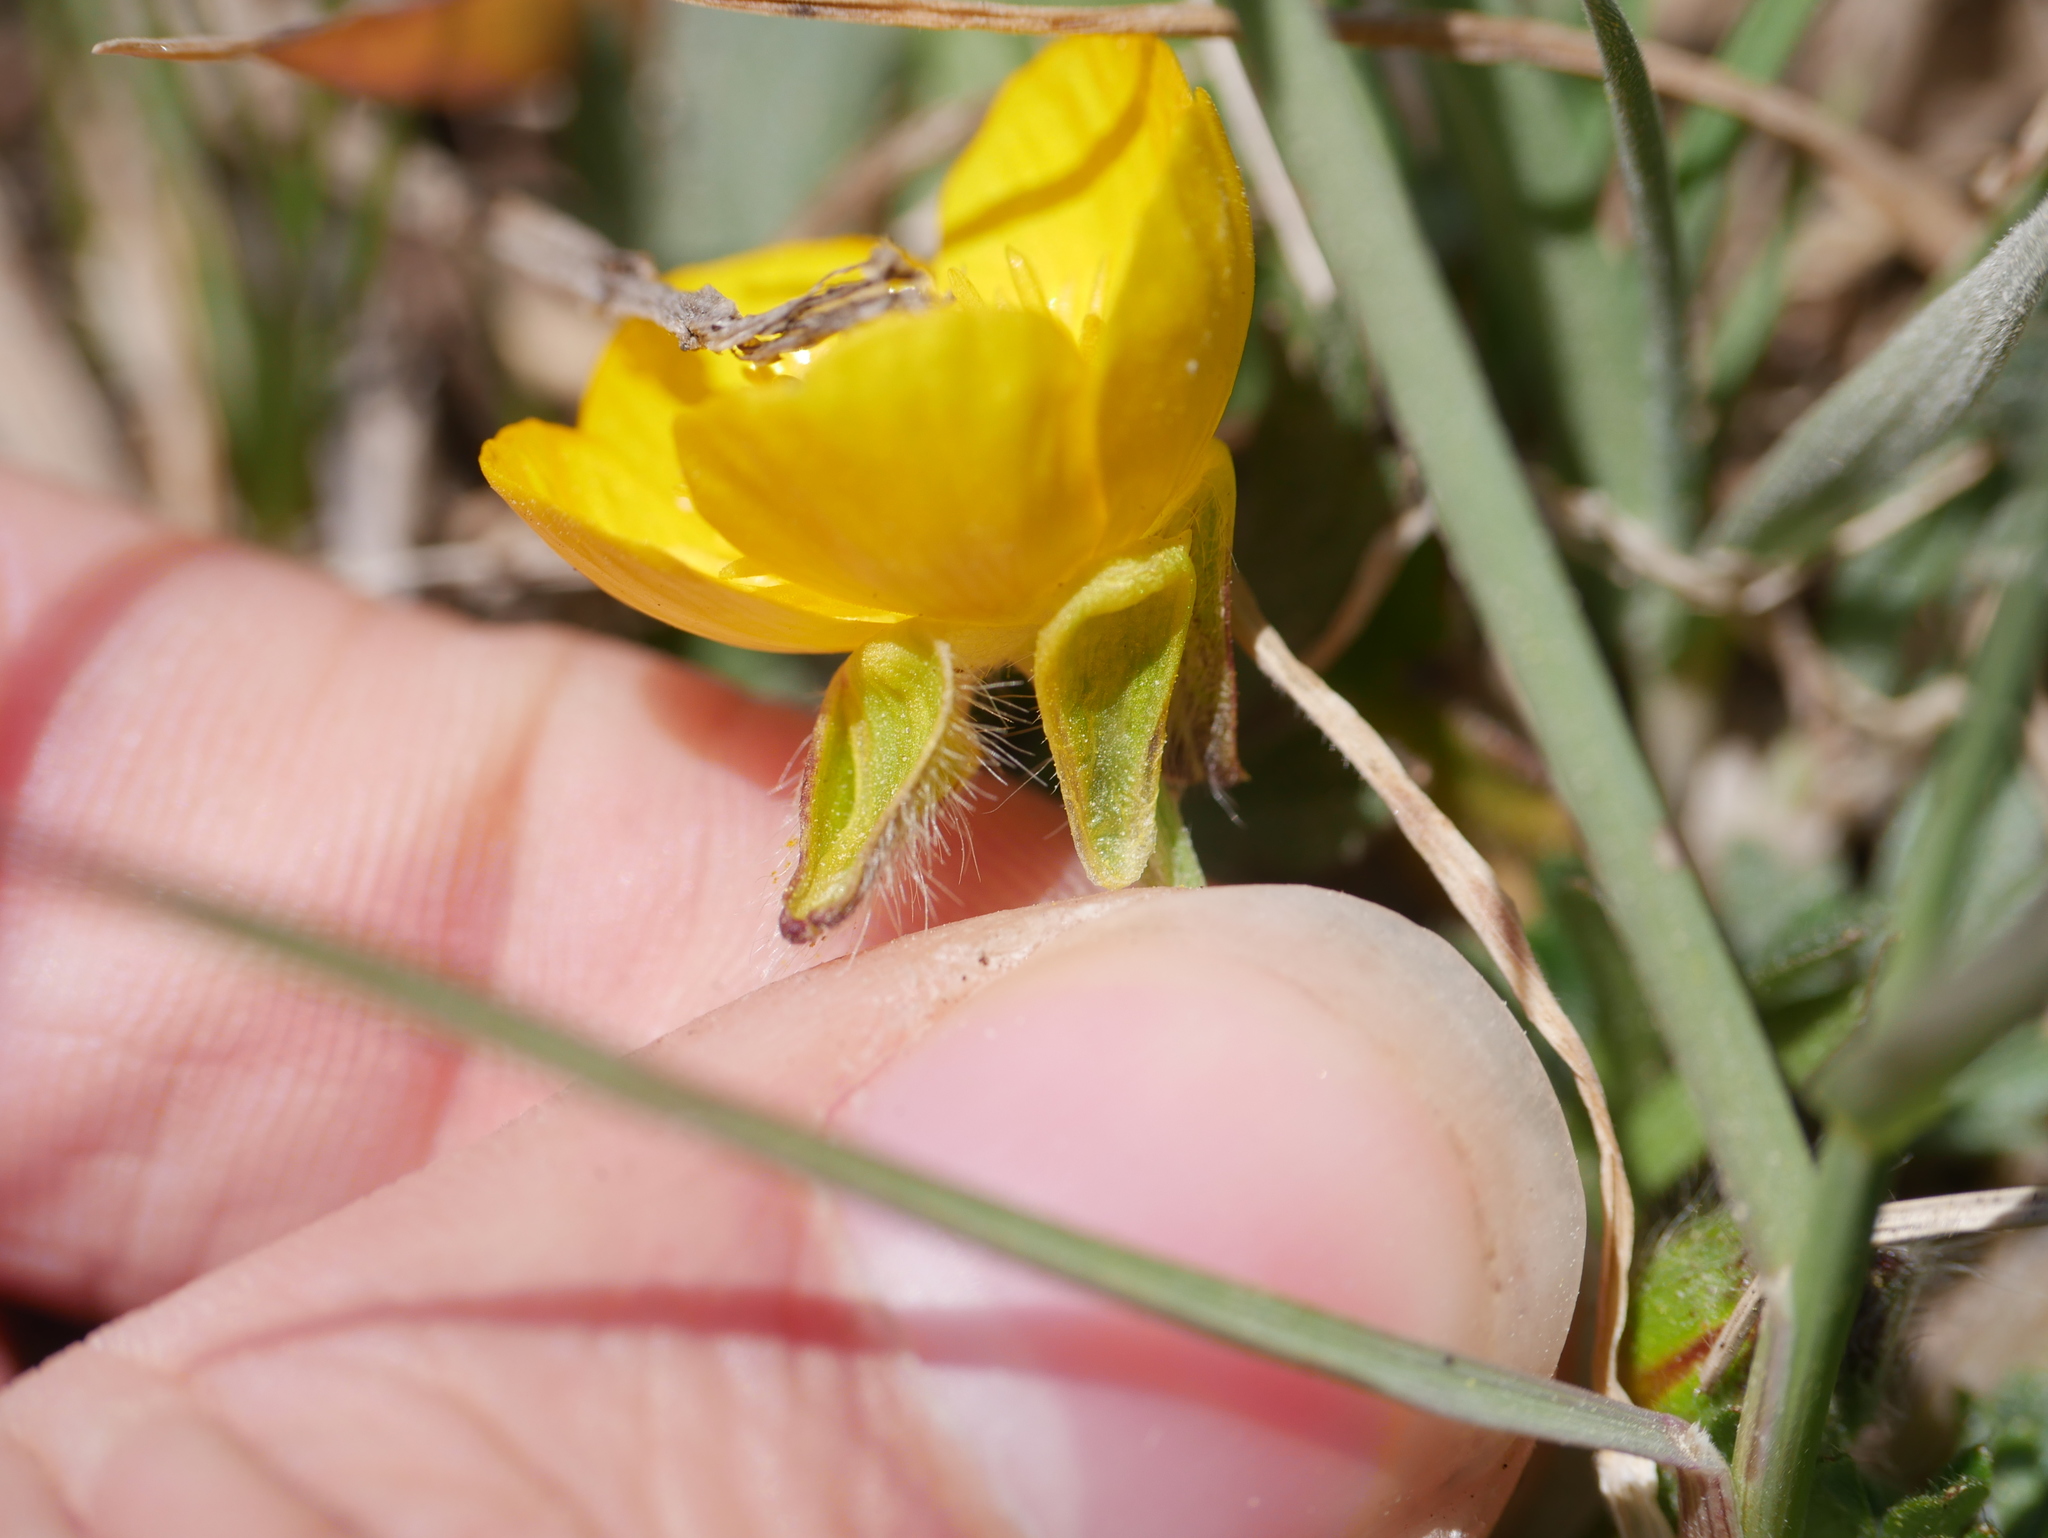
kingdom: Plantae
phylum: Tracheophyta
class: Magnoliopsida
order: Ranunculales
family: Ranunculaceae
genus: Ranunculus
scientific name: Ranunculus bulbosus
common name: Bulbous buttercup
